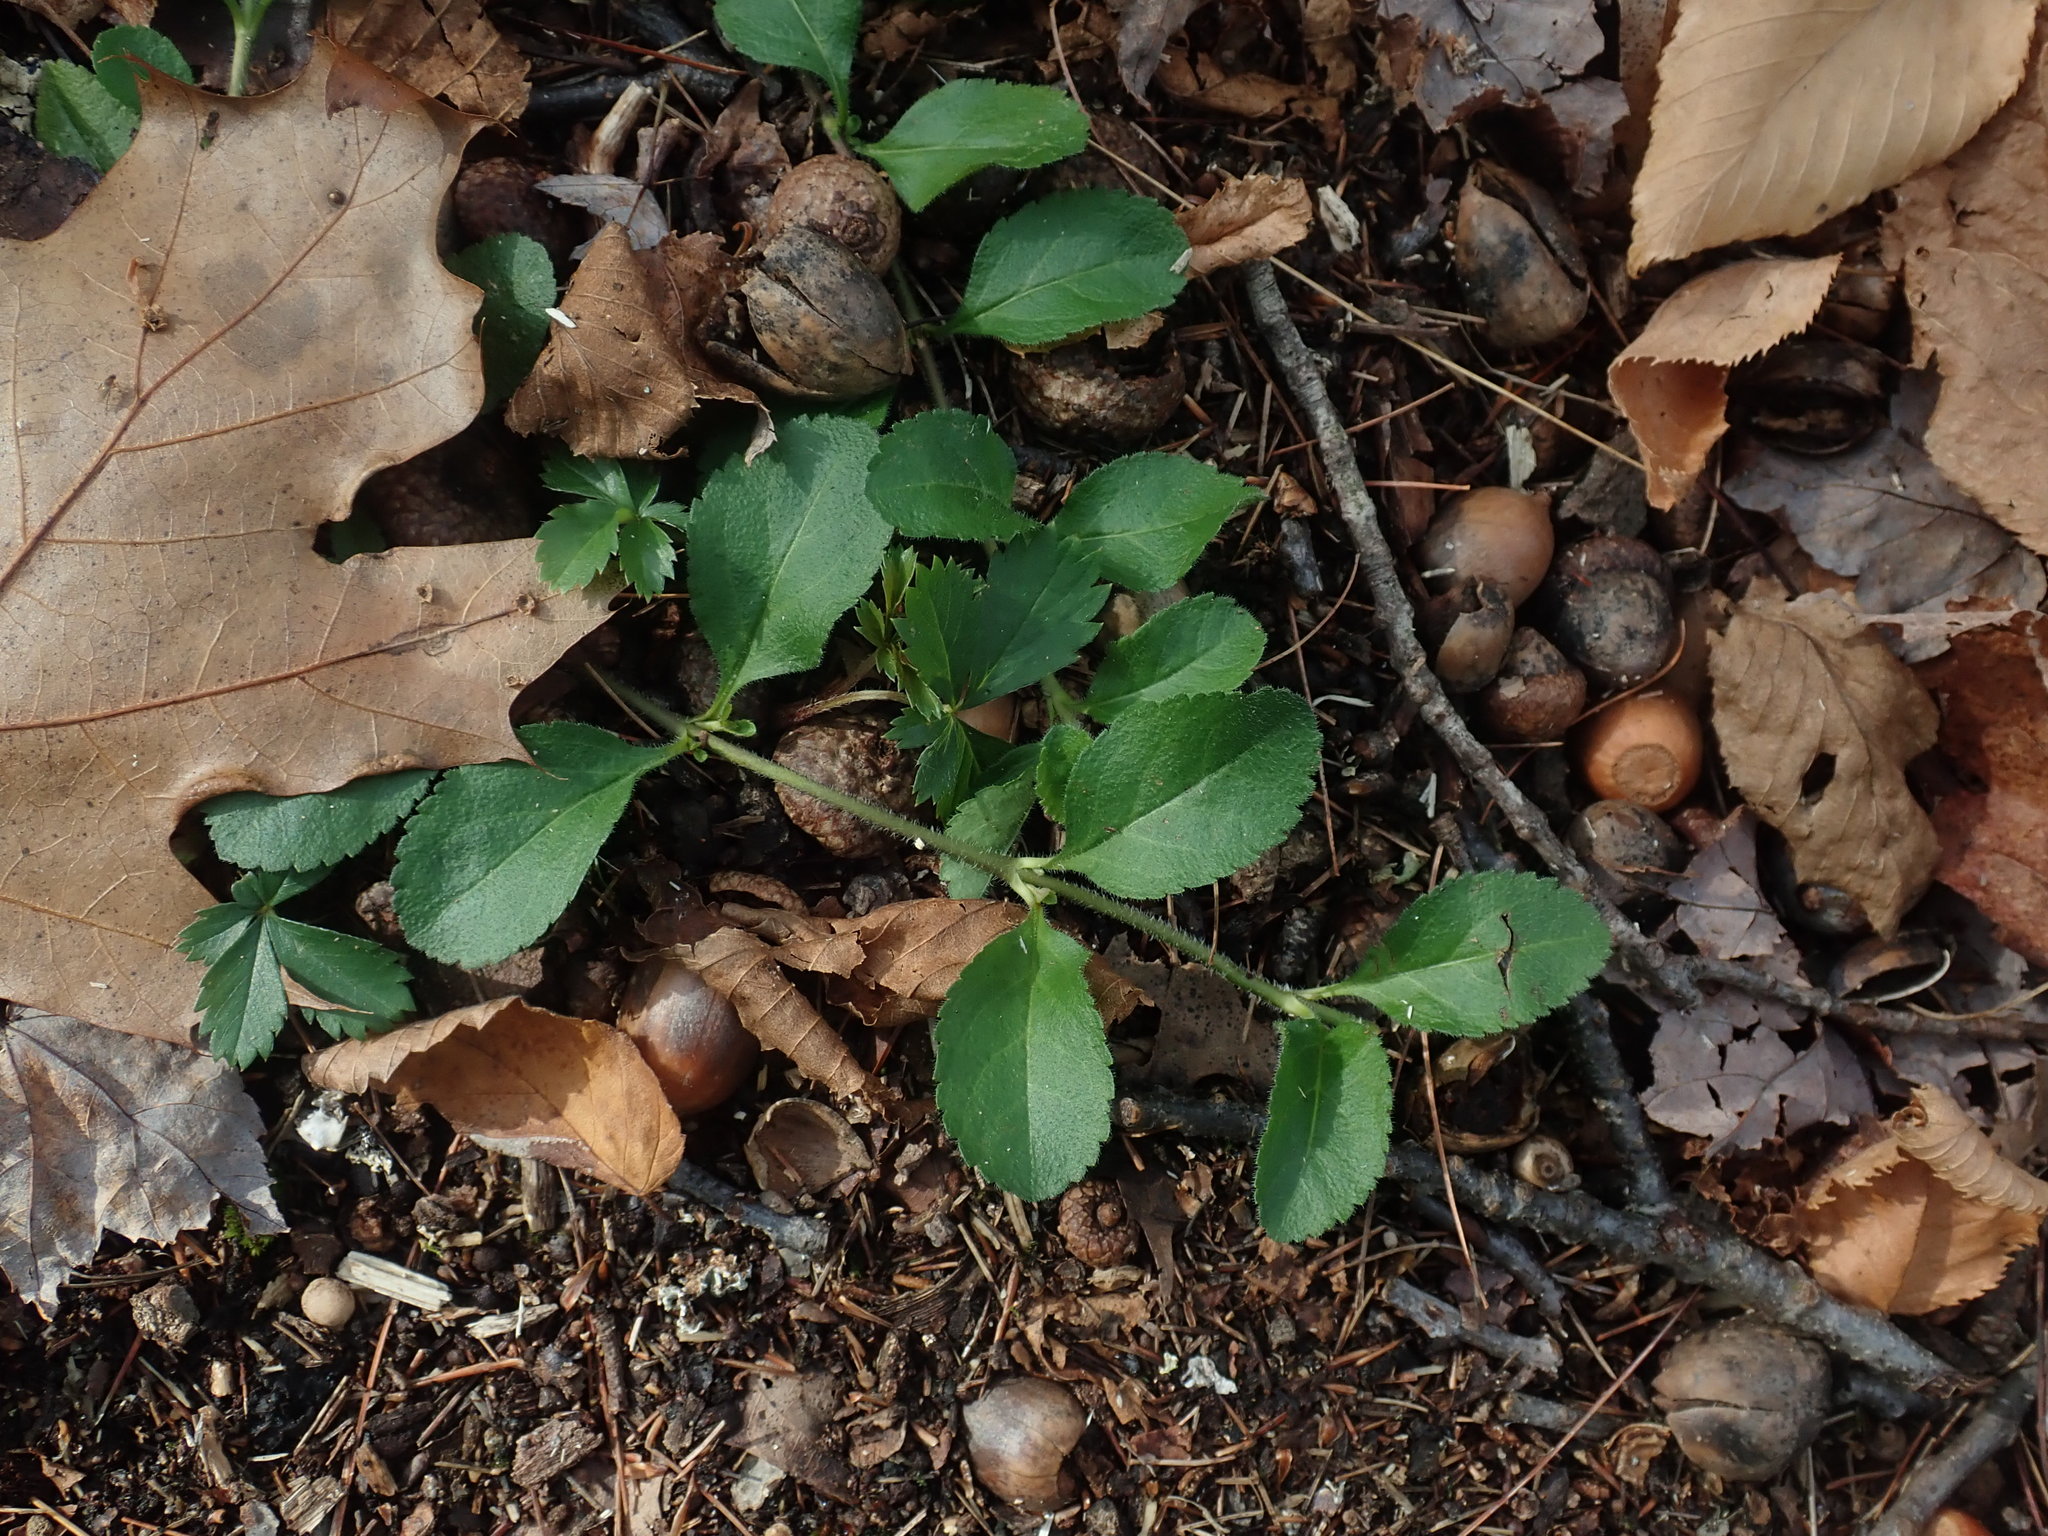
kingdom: Plantae
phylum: Tracheophyta
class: Magnoliopsida
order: Lamiales
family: Plantaginaceae
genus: Veronica
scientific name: Veronica officinalis
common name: Common speedwell
